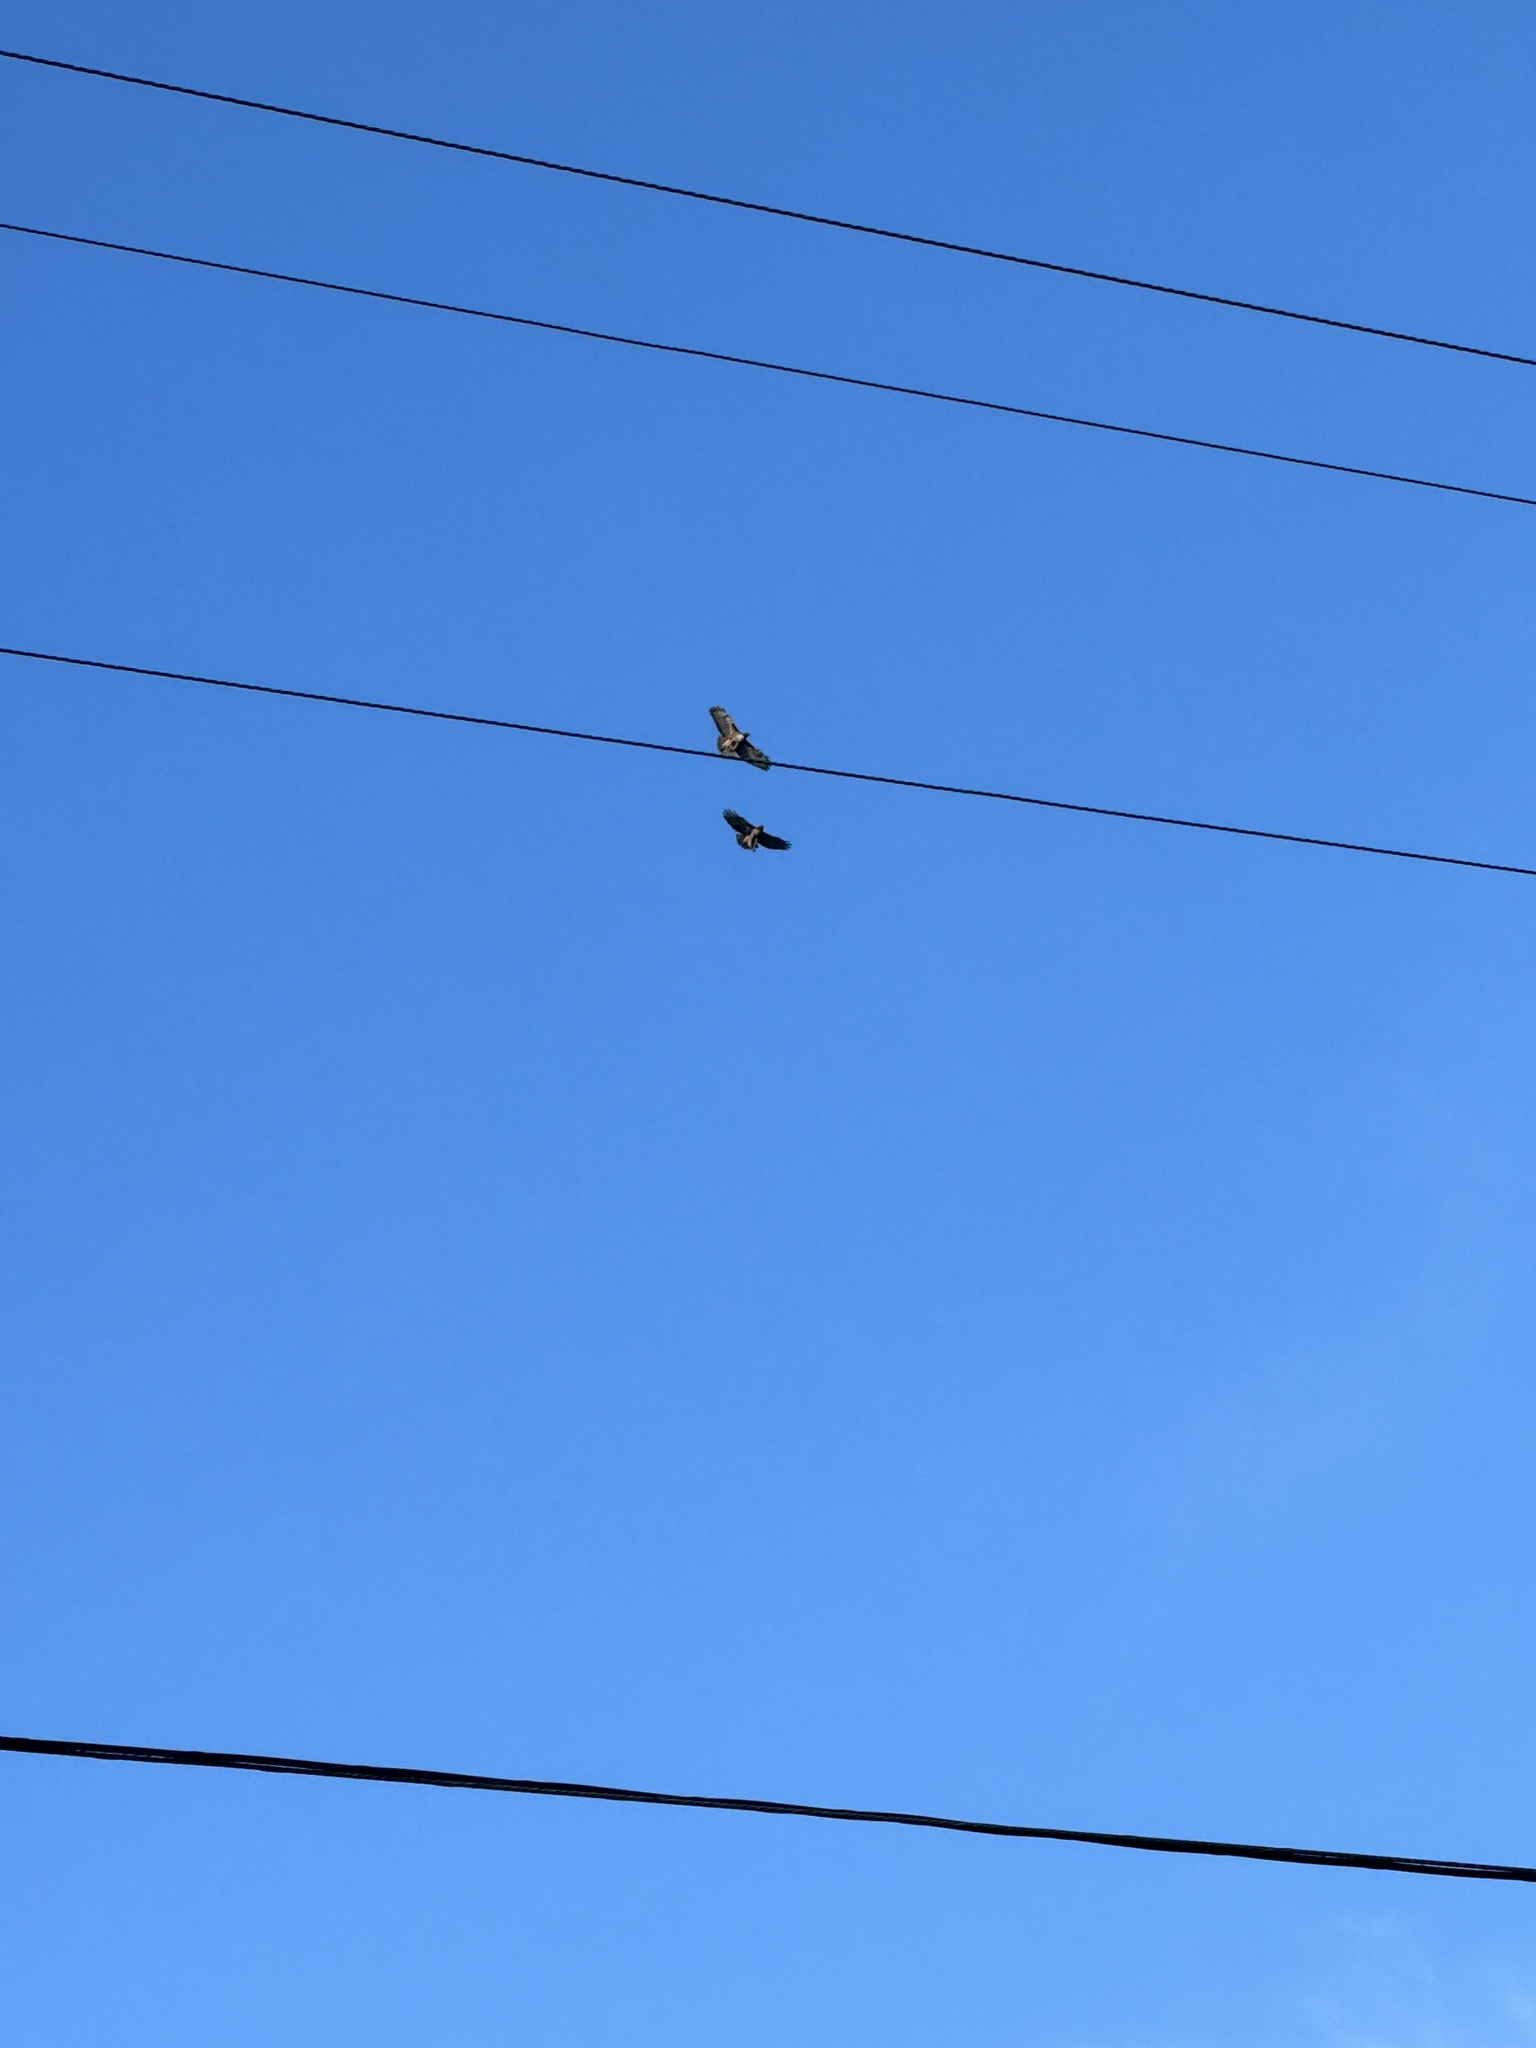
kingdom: Animalia
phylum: Chordata
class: Aves
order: Accipitriformes
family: Accipitridae
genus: Buteo
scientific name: Buteo jamaicensis
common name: Red-tailed hawk
